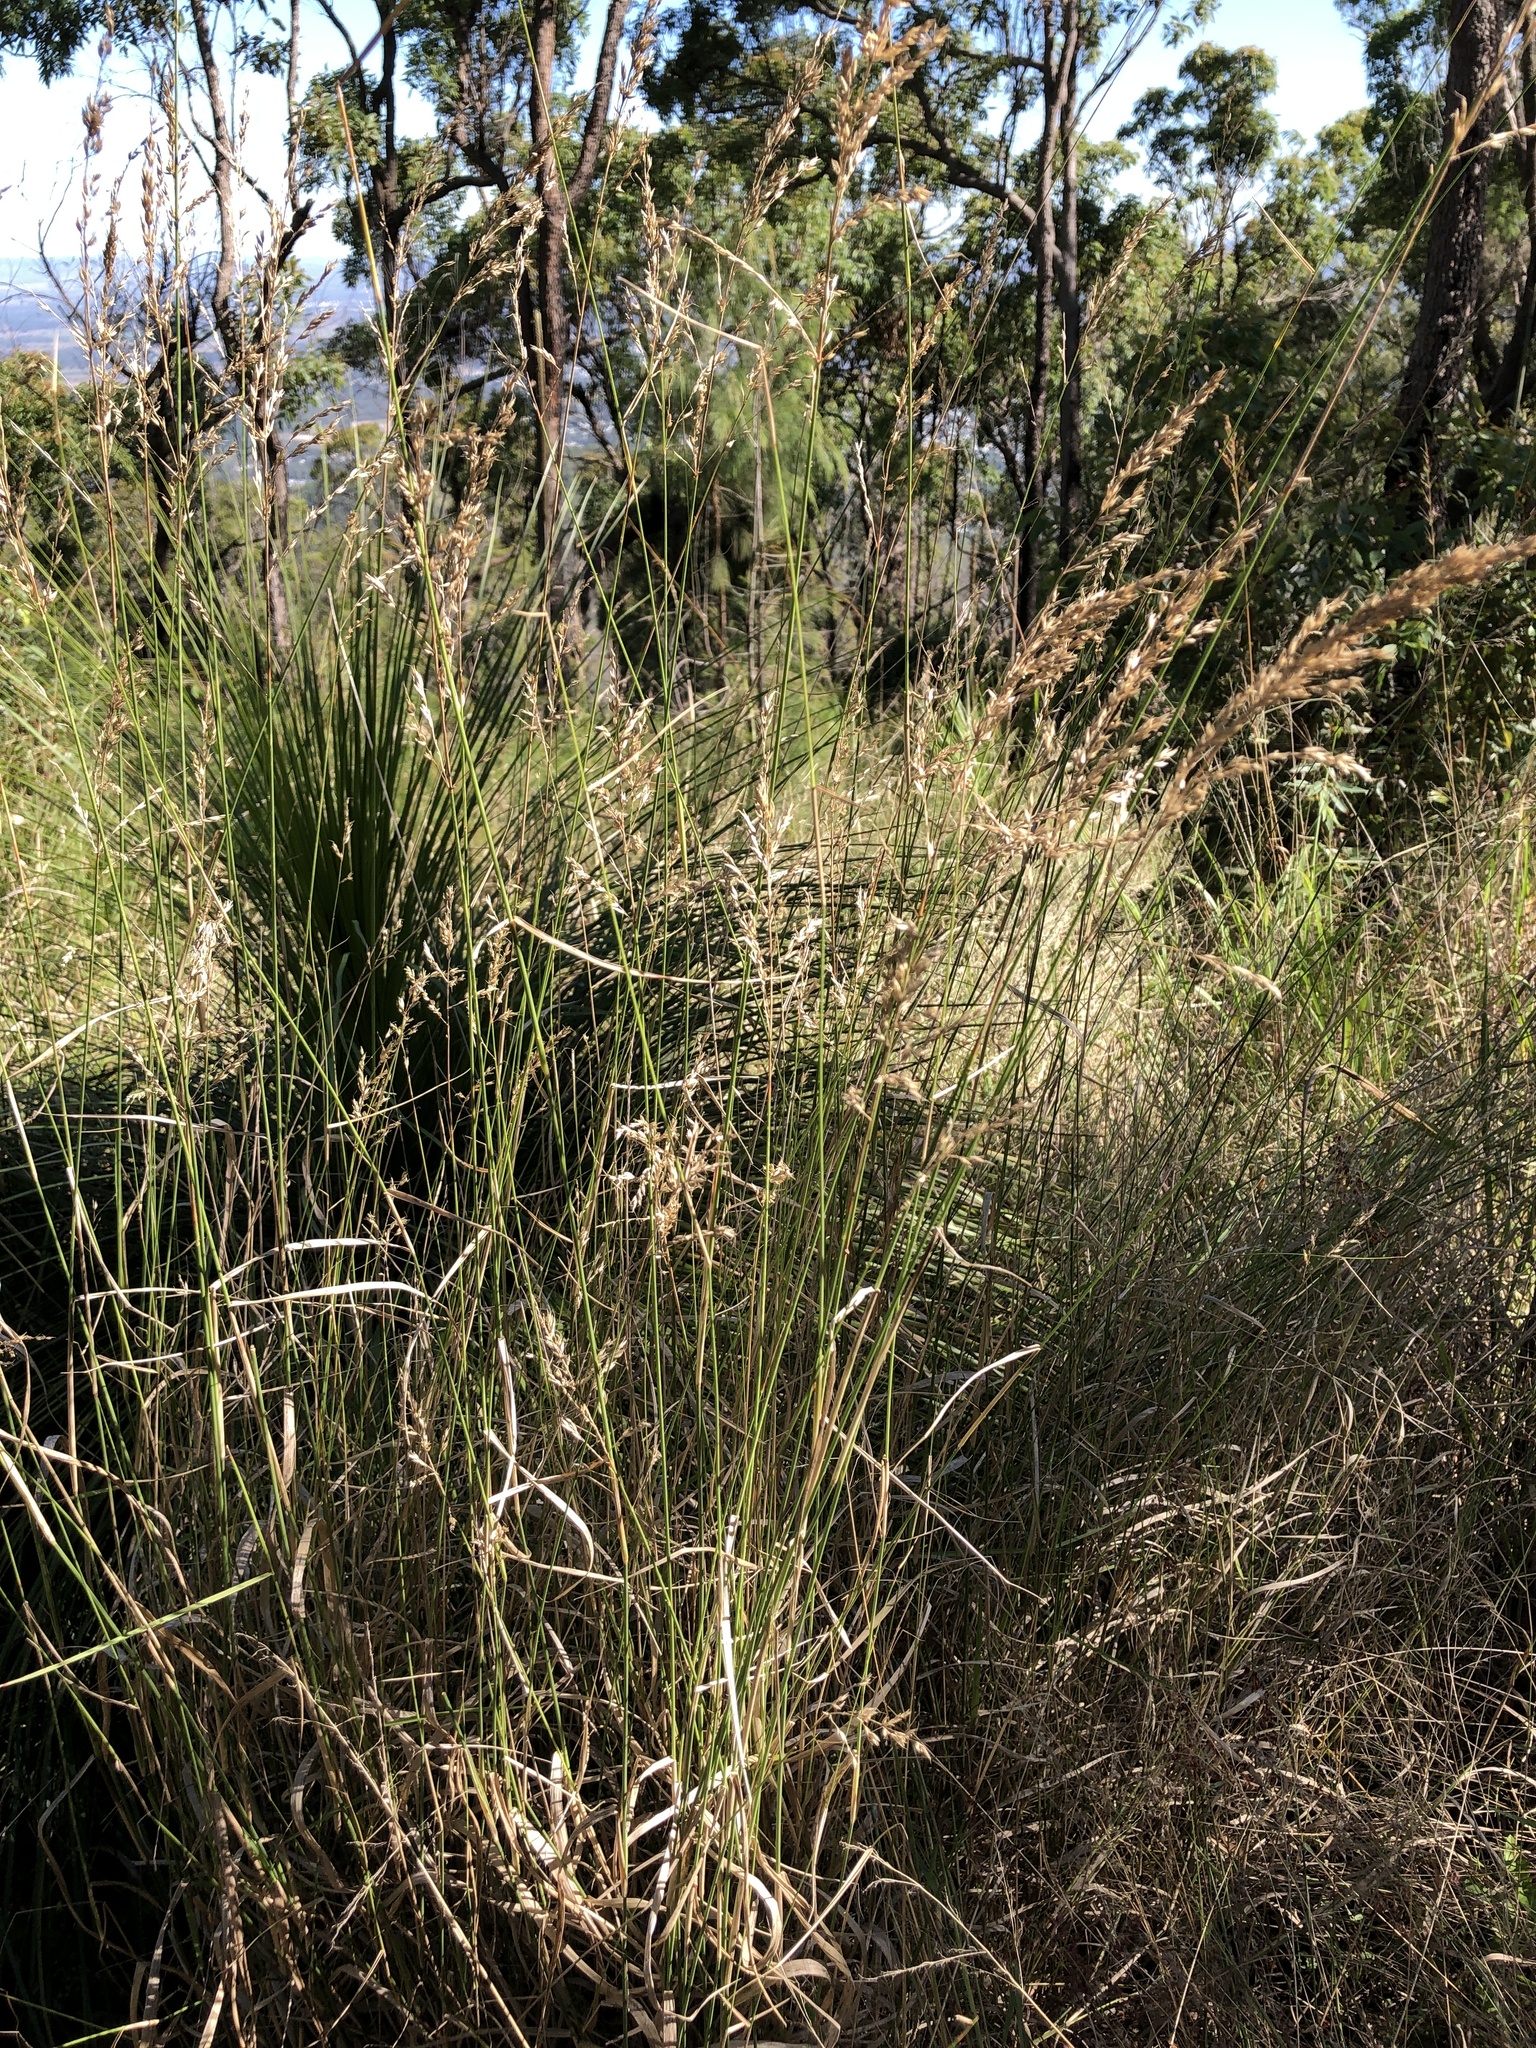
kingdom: Plantae
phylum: Tracheophyta
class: Liliopsida
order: Poales
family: Poaceae
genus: Arundinella
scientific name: Arundinella nepalensis
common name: Reed grass
